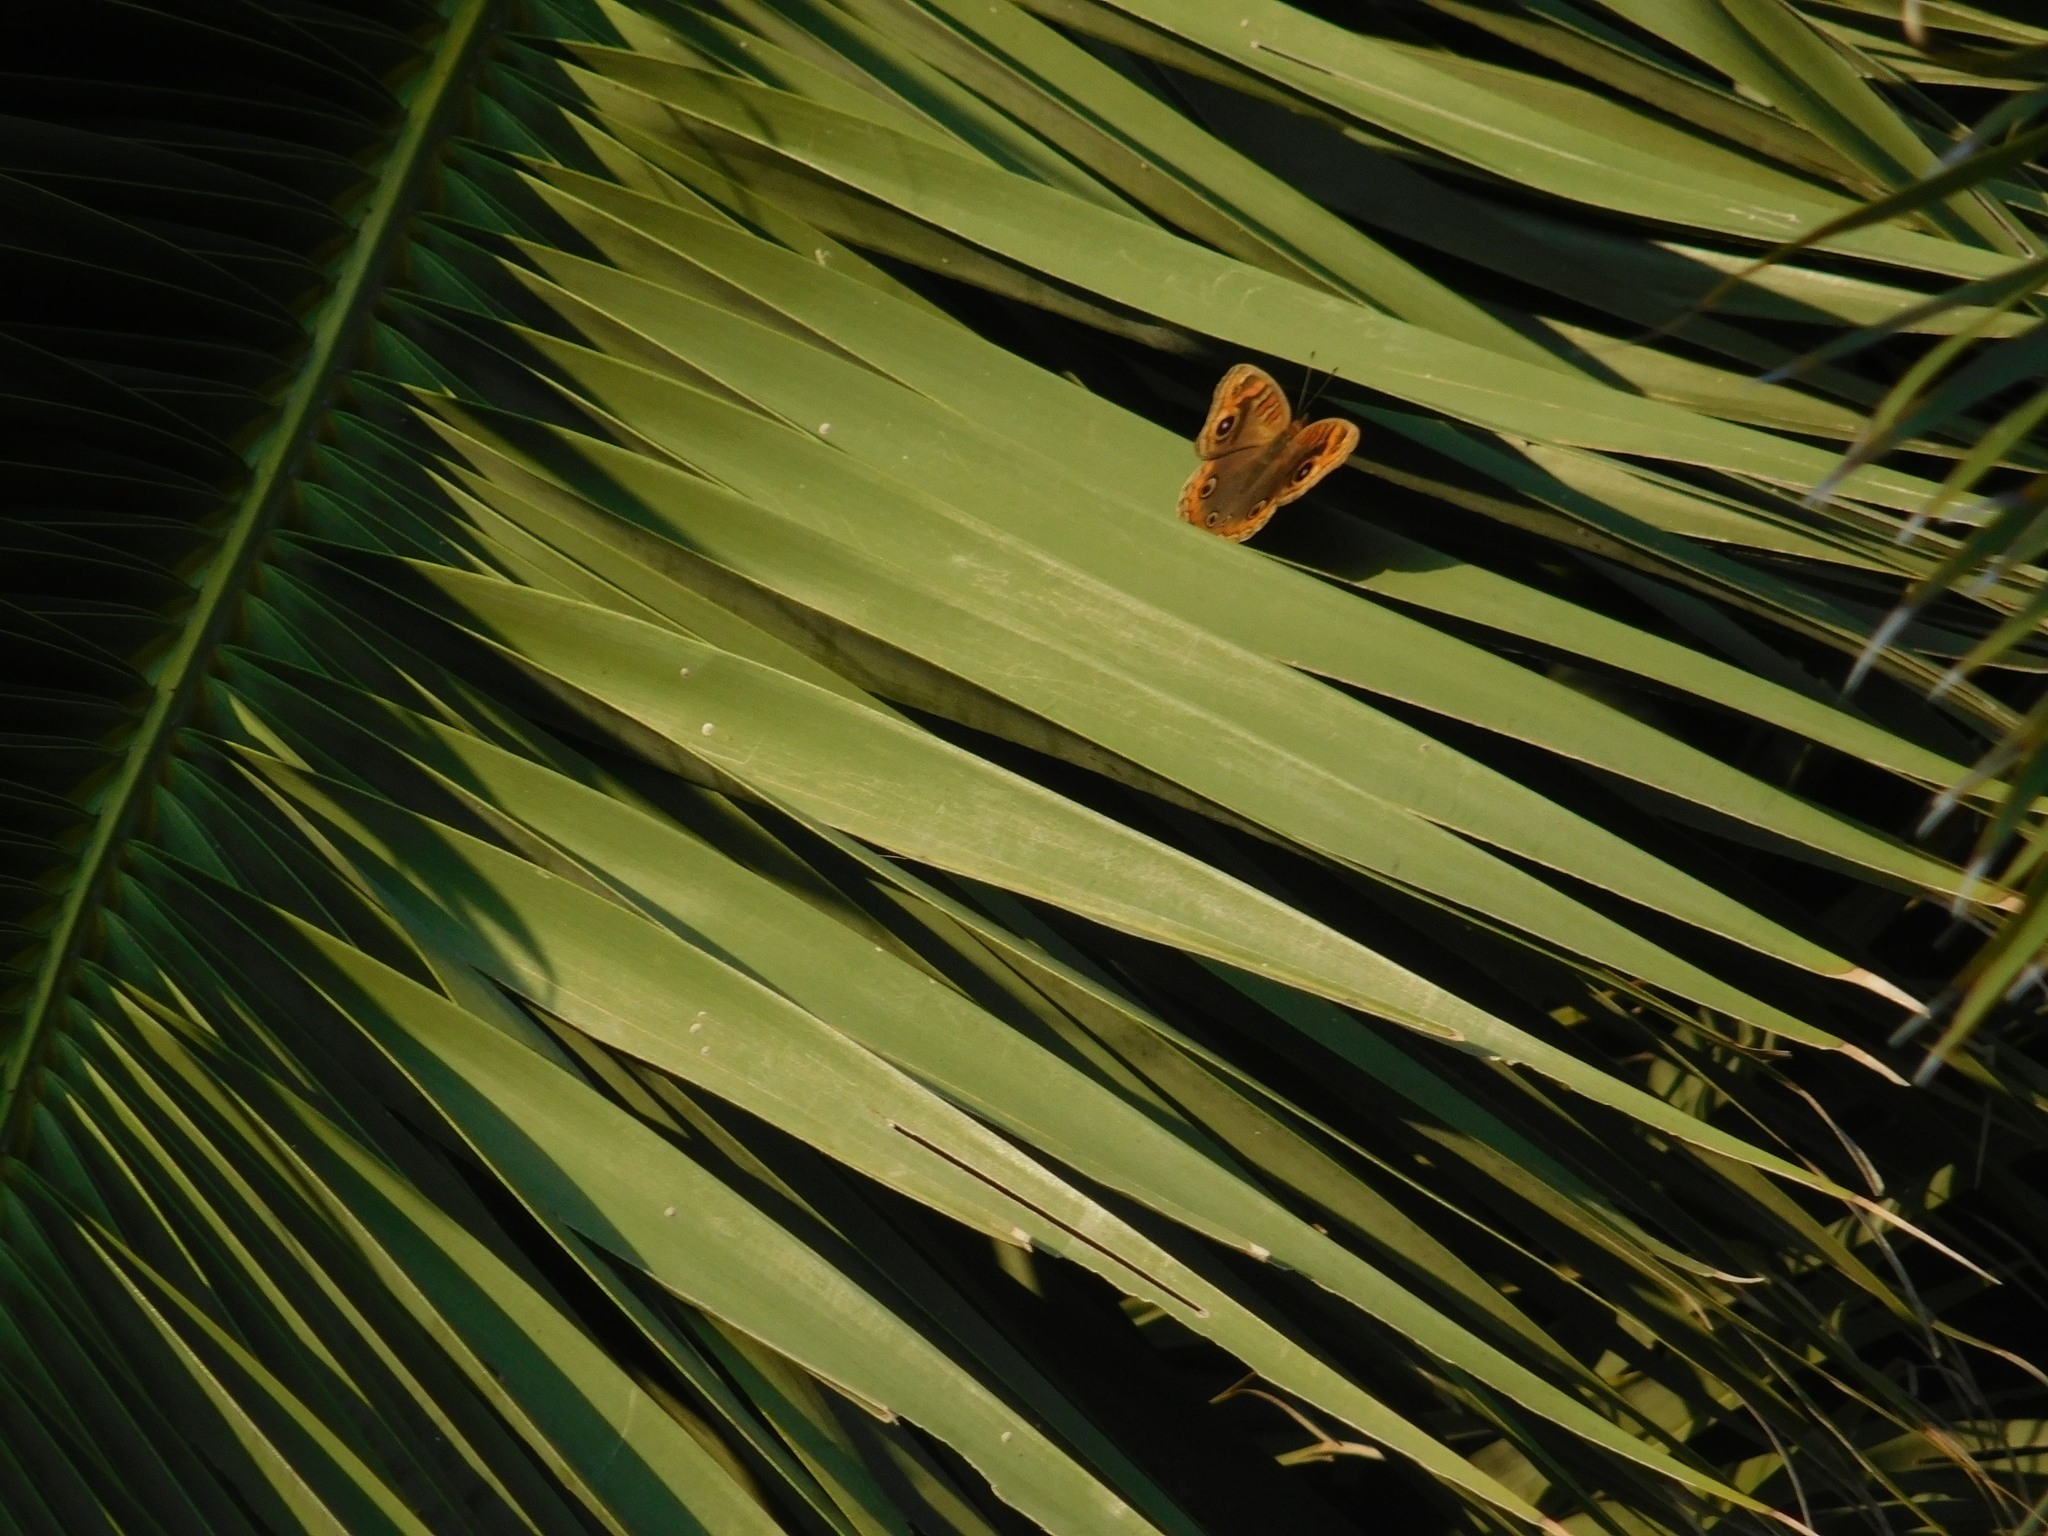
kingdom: Animalia
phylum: Arthropoda
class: Insecta
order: Lepidoptera
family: Nymphalidae
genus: Junonia
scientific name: Junonia lavinia
